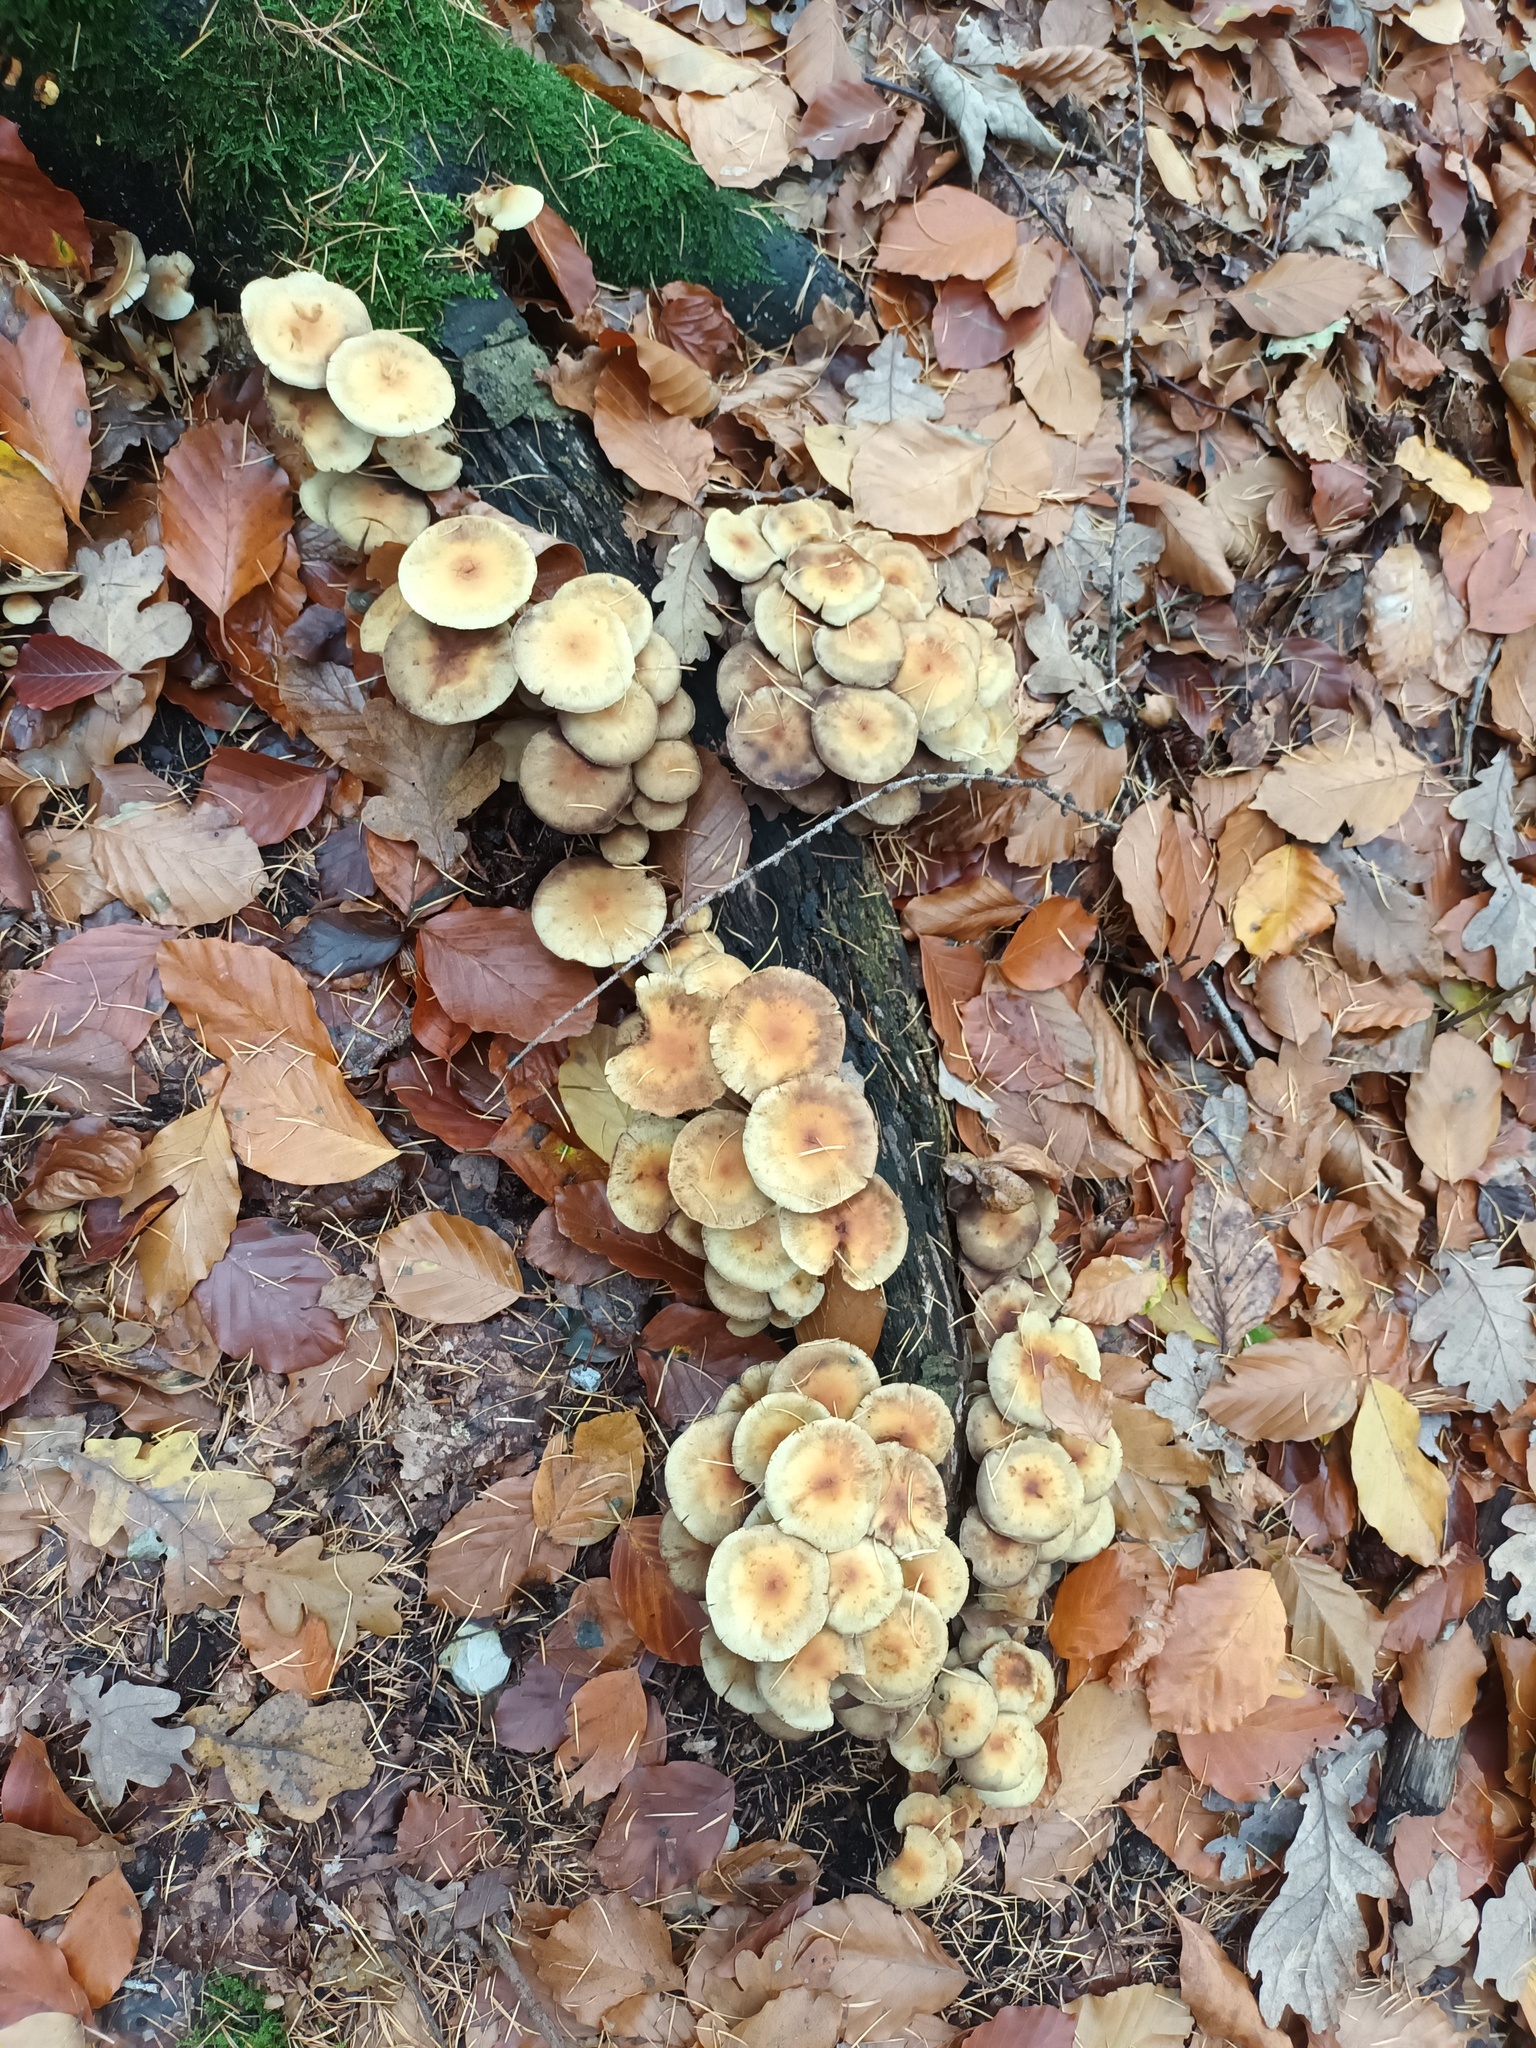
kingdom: Fungi
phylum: Basidiomycota
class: Agaricomycetes
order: Agaricales
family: Strophariaceae
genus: Hypholoma
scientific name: Hypholoma fasciculare
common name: Sulphur tuft
